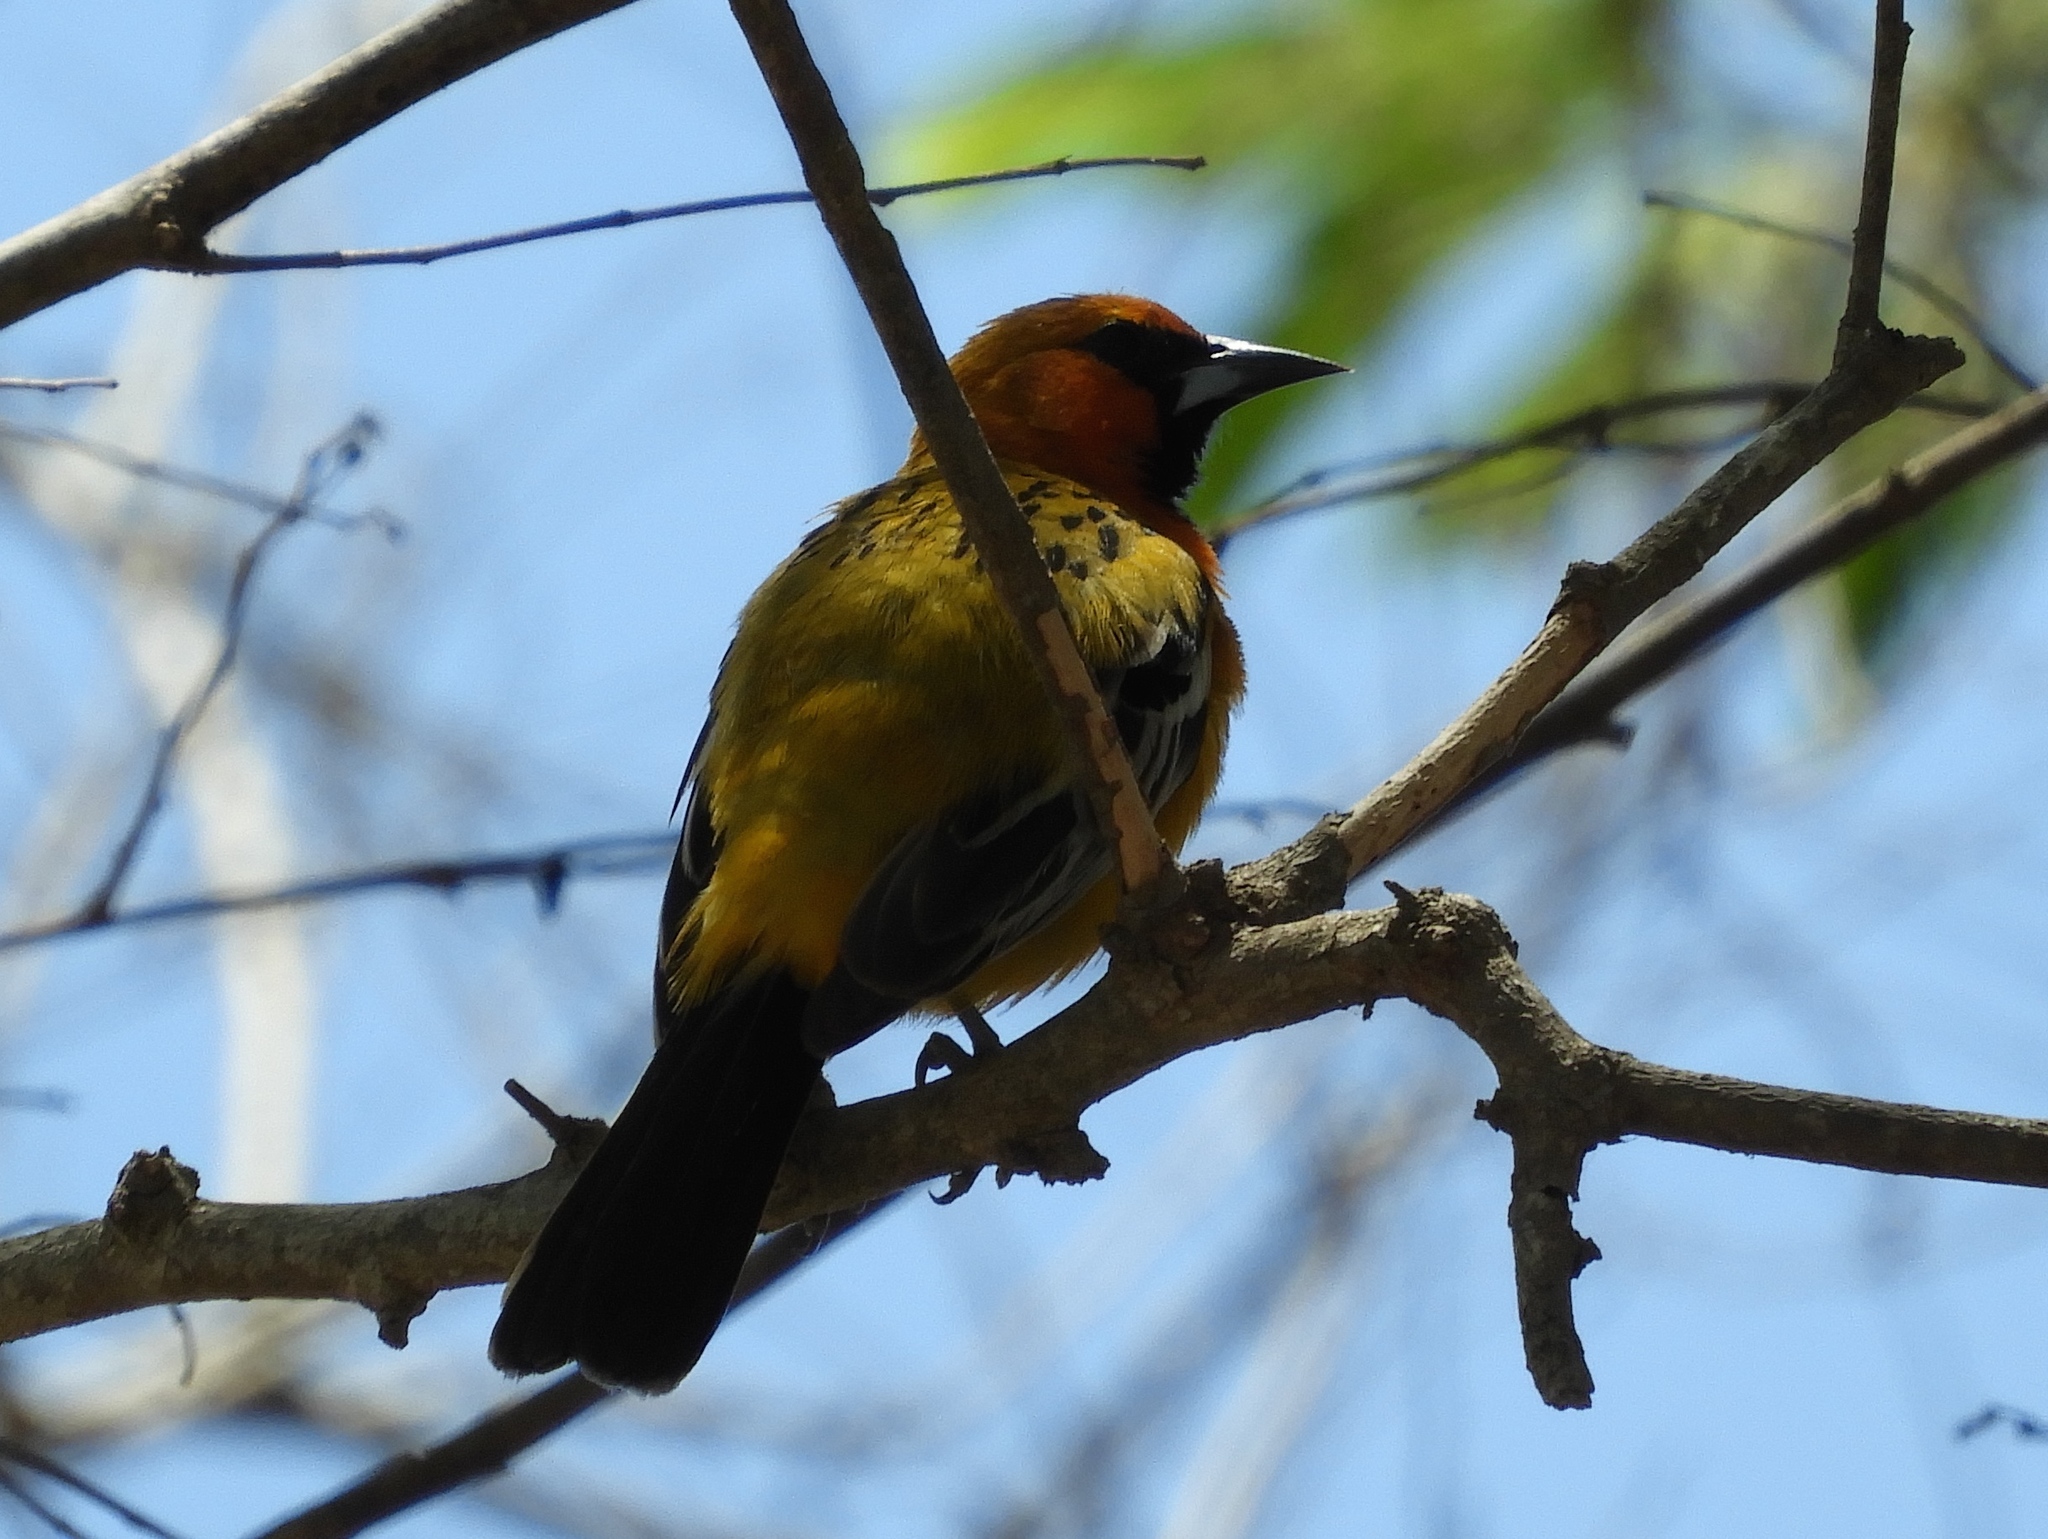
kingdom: Animalia
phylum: Chordata
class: Aves
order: Passeriformes
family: Icteridae
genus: Icterus
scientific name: Icterus pustulatus
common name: Streak-backed oriole
